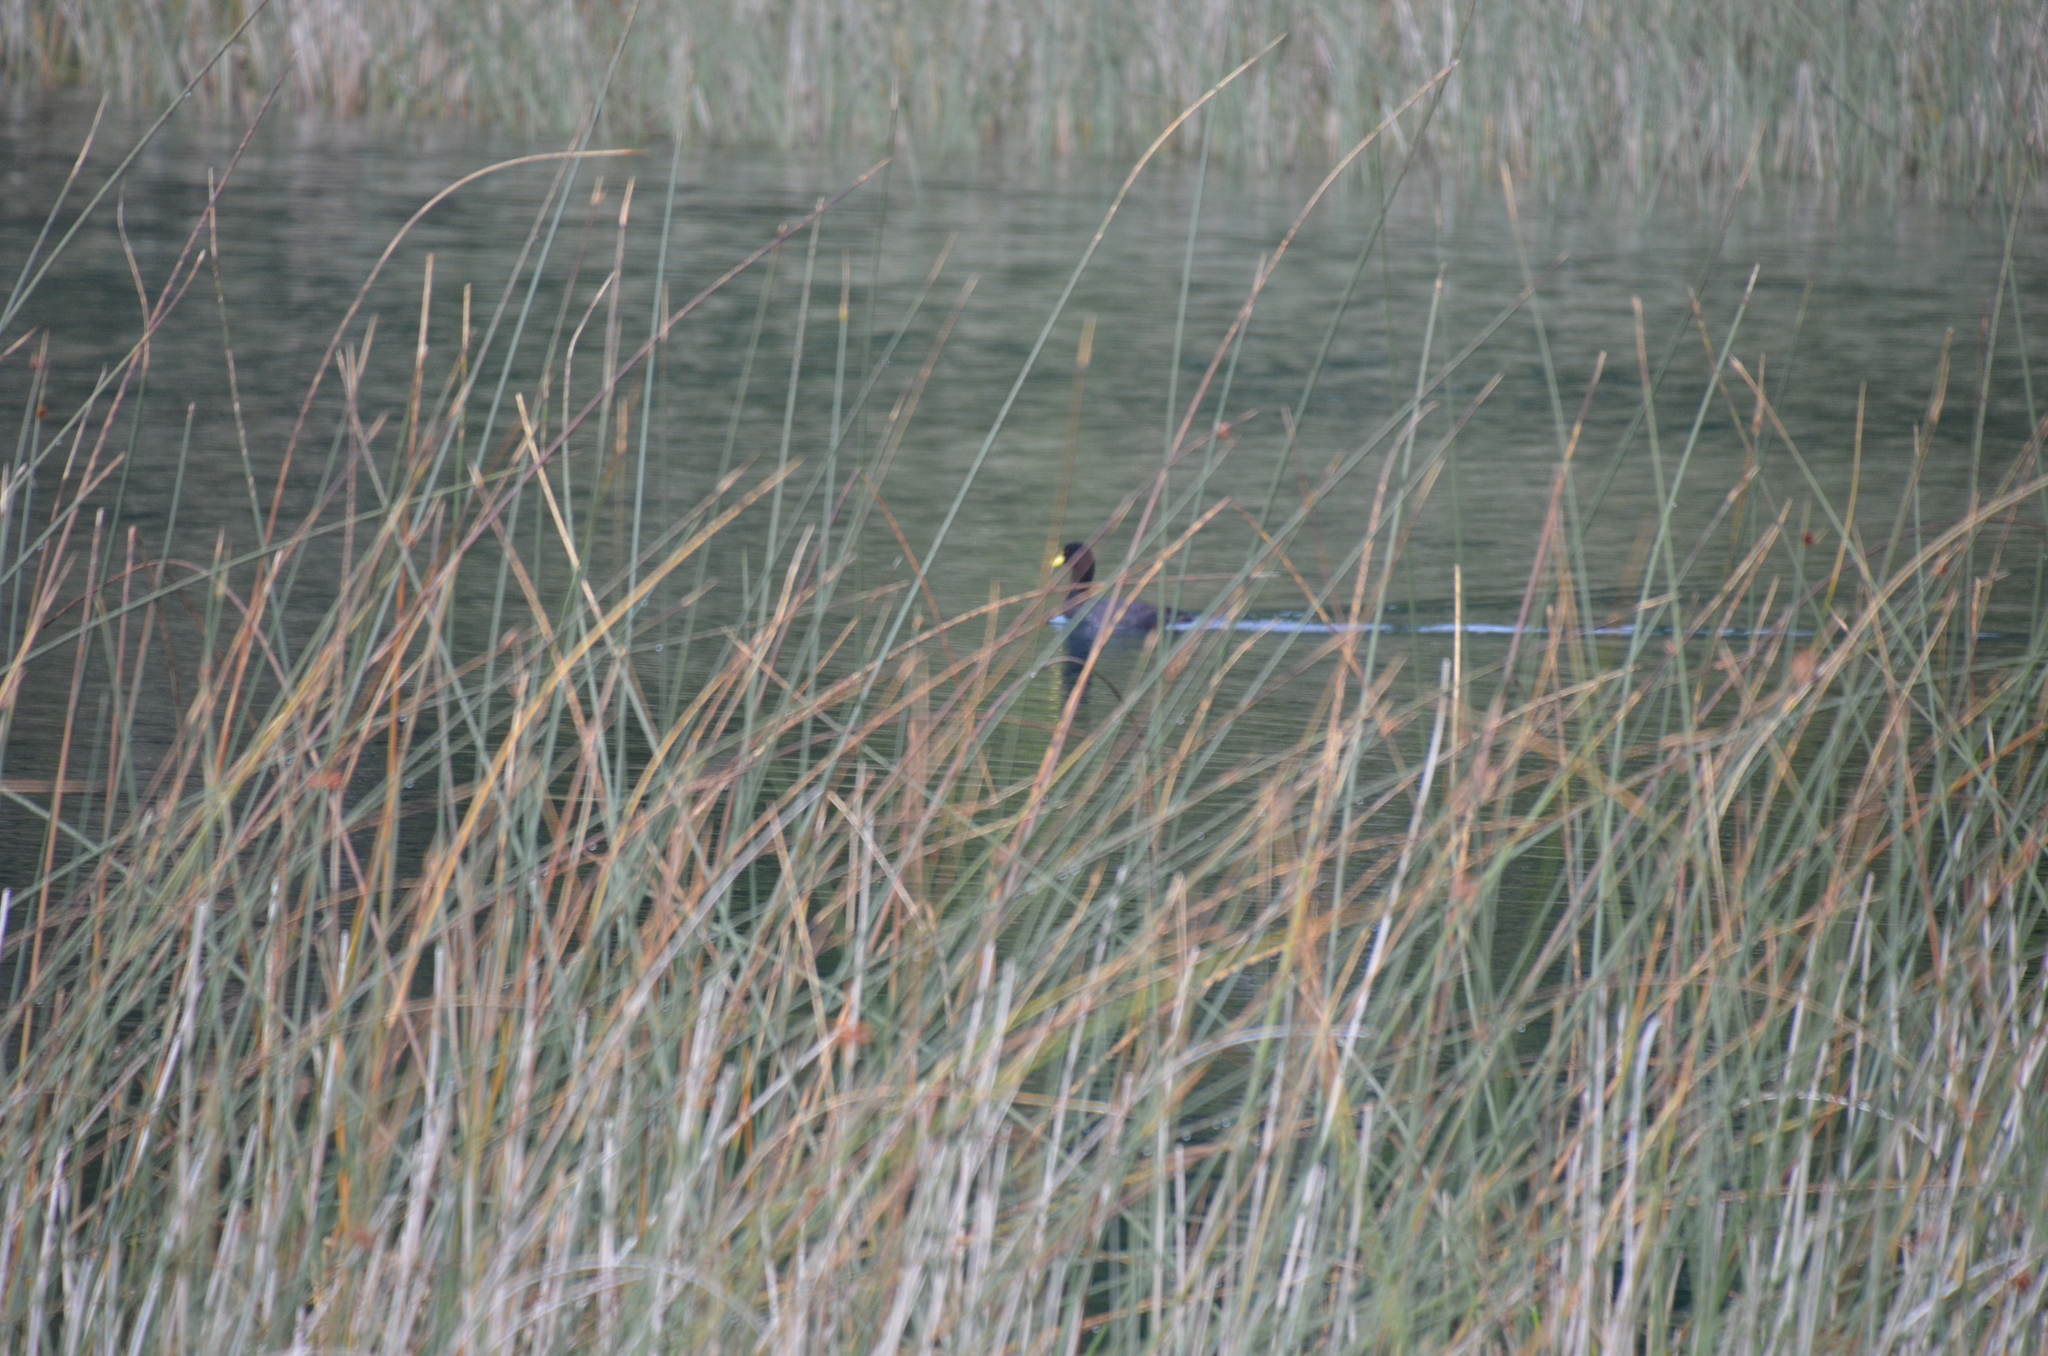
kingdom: Animalia
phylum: Chordata
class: Aves
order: Gruiformes
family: Rallidae
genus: Fulica
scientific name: Fulica armillata
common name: Red-gartered coot
